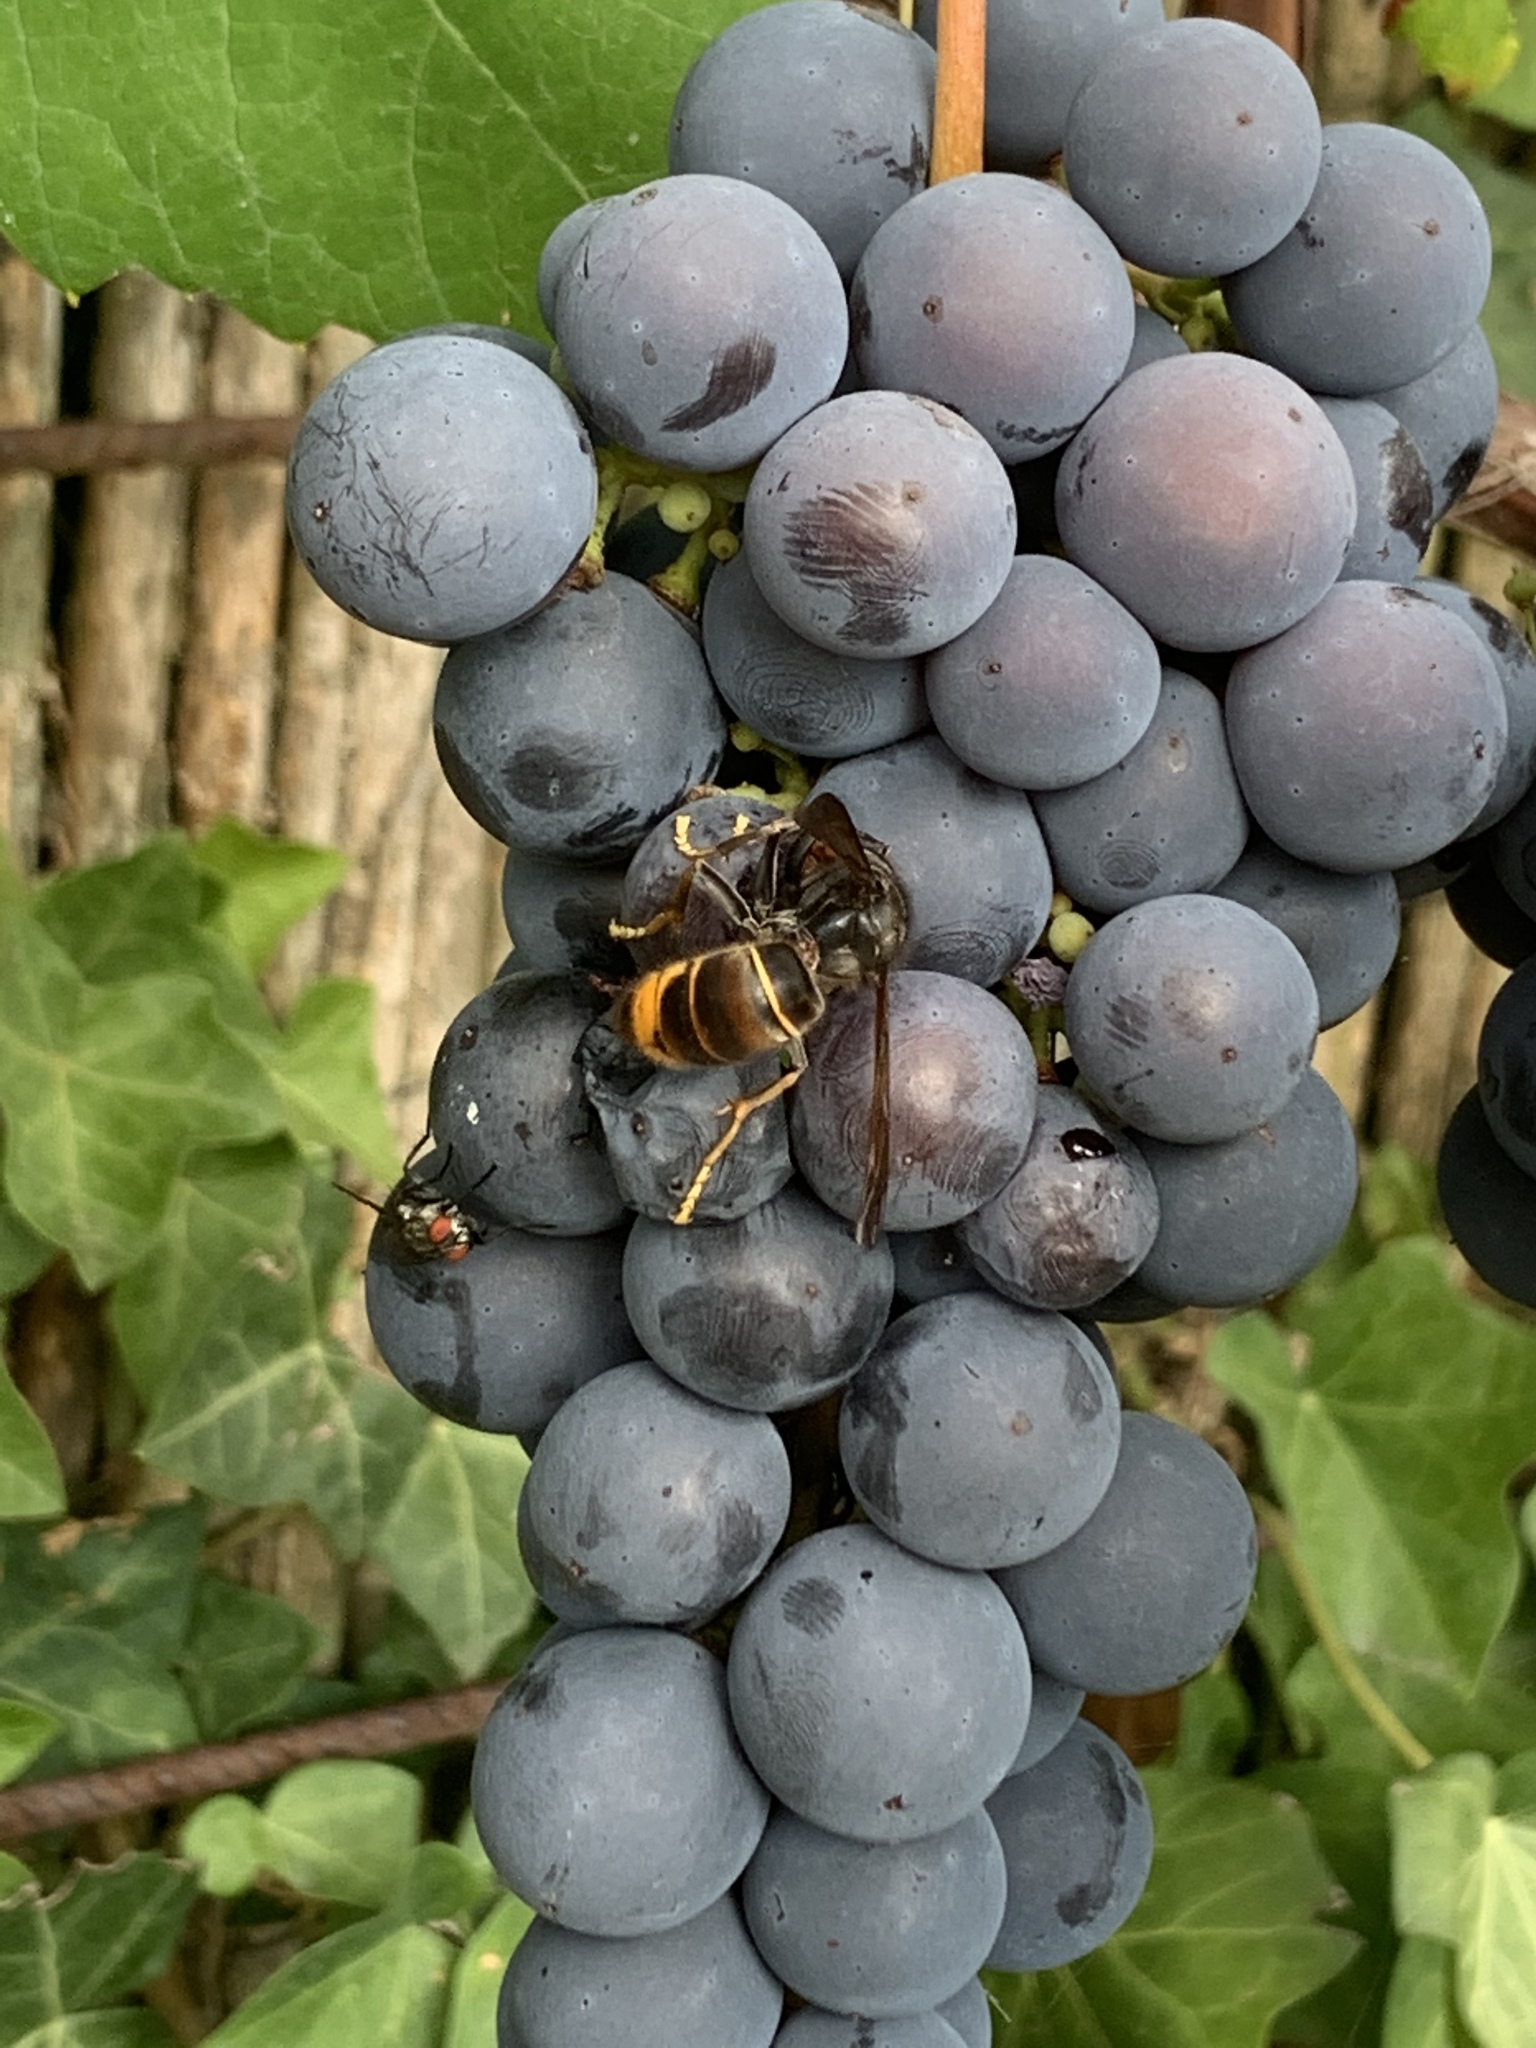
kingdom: Animalia
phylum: Arthropoda
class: Insecta
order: Hymenoptera
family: Vespidae
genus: Vespa
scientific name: Vespa velutina
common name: Asian hornet
